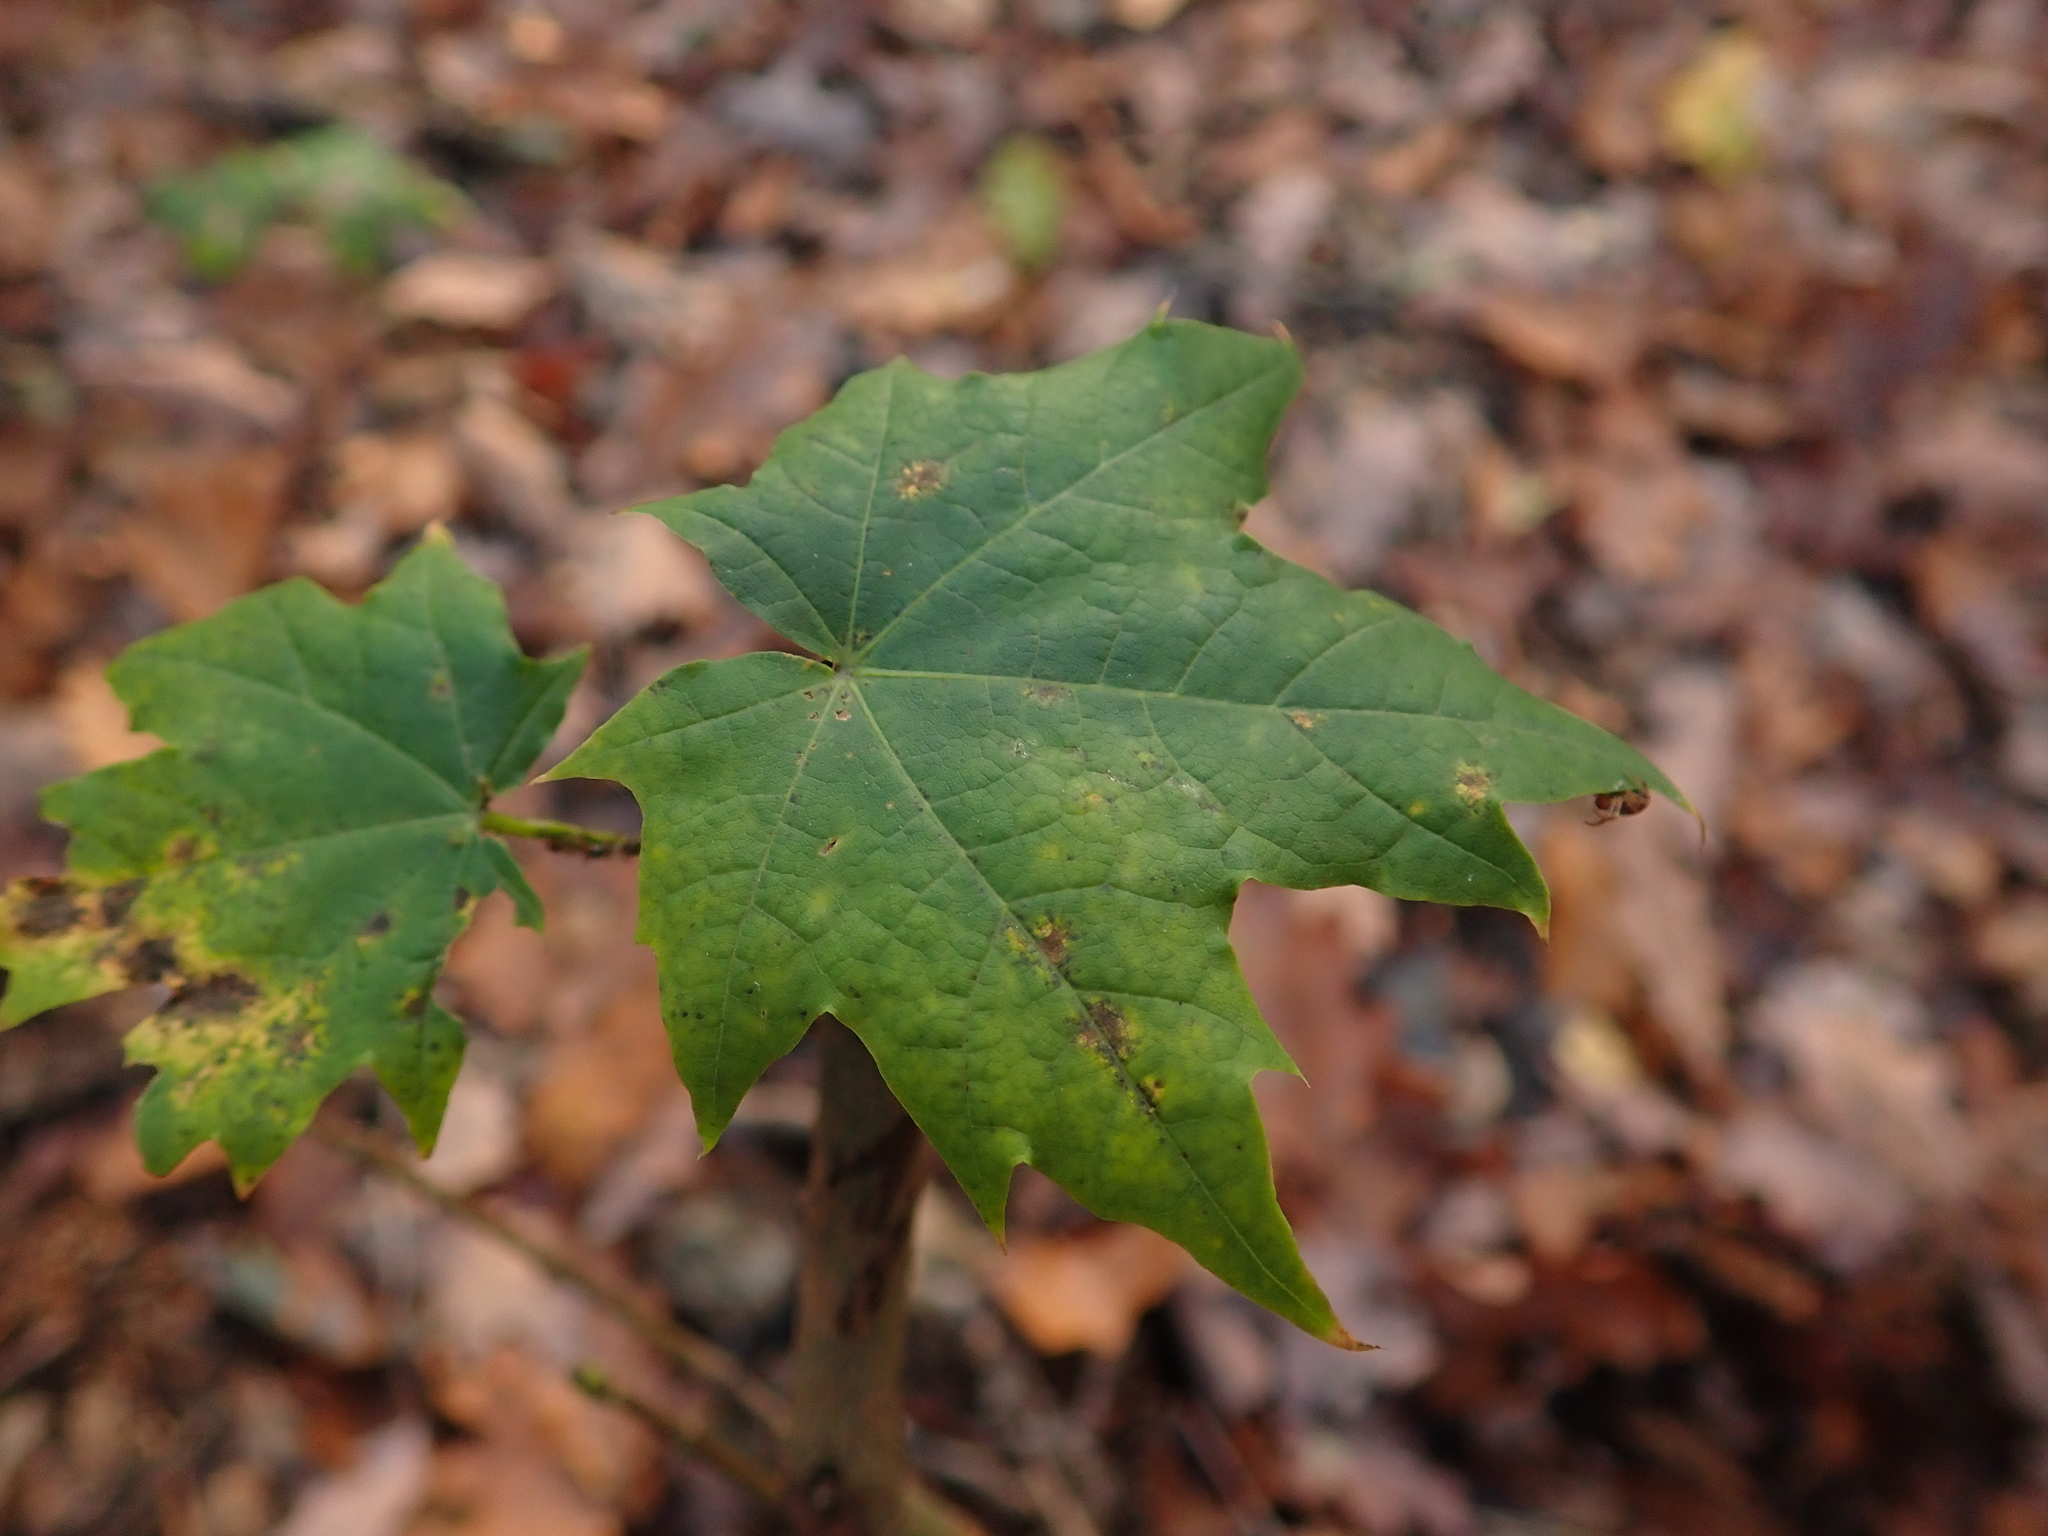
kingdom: Plantae
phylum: Tracheophyta
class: Magnoliopsida
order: Sapindales
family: Sapindaceae
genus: Acer
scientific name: Acer platanoides
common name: Norway maple
